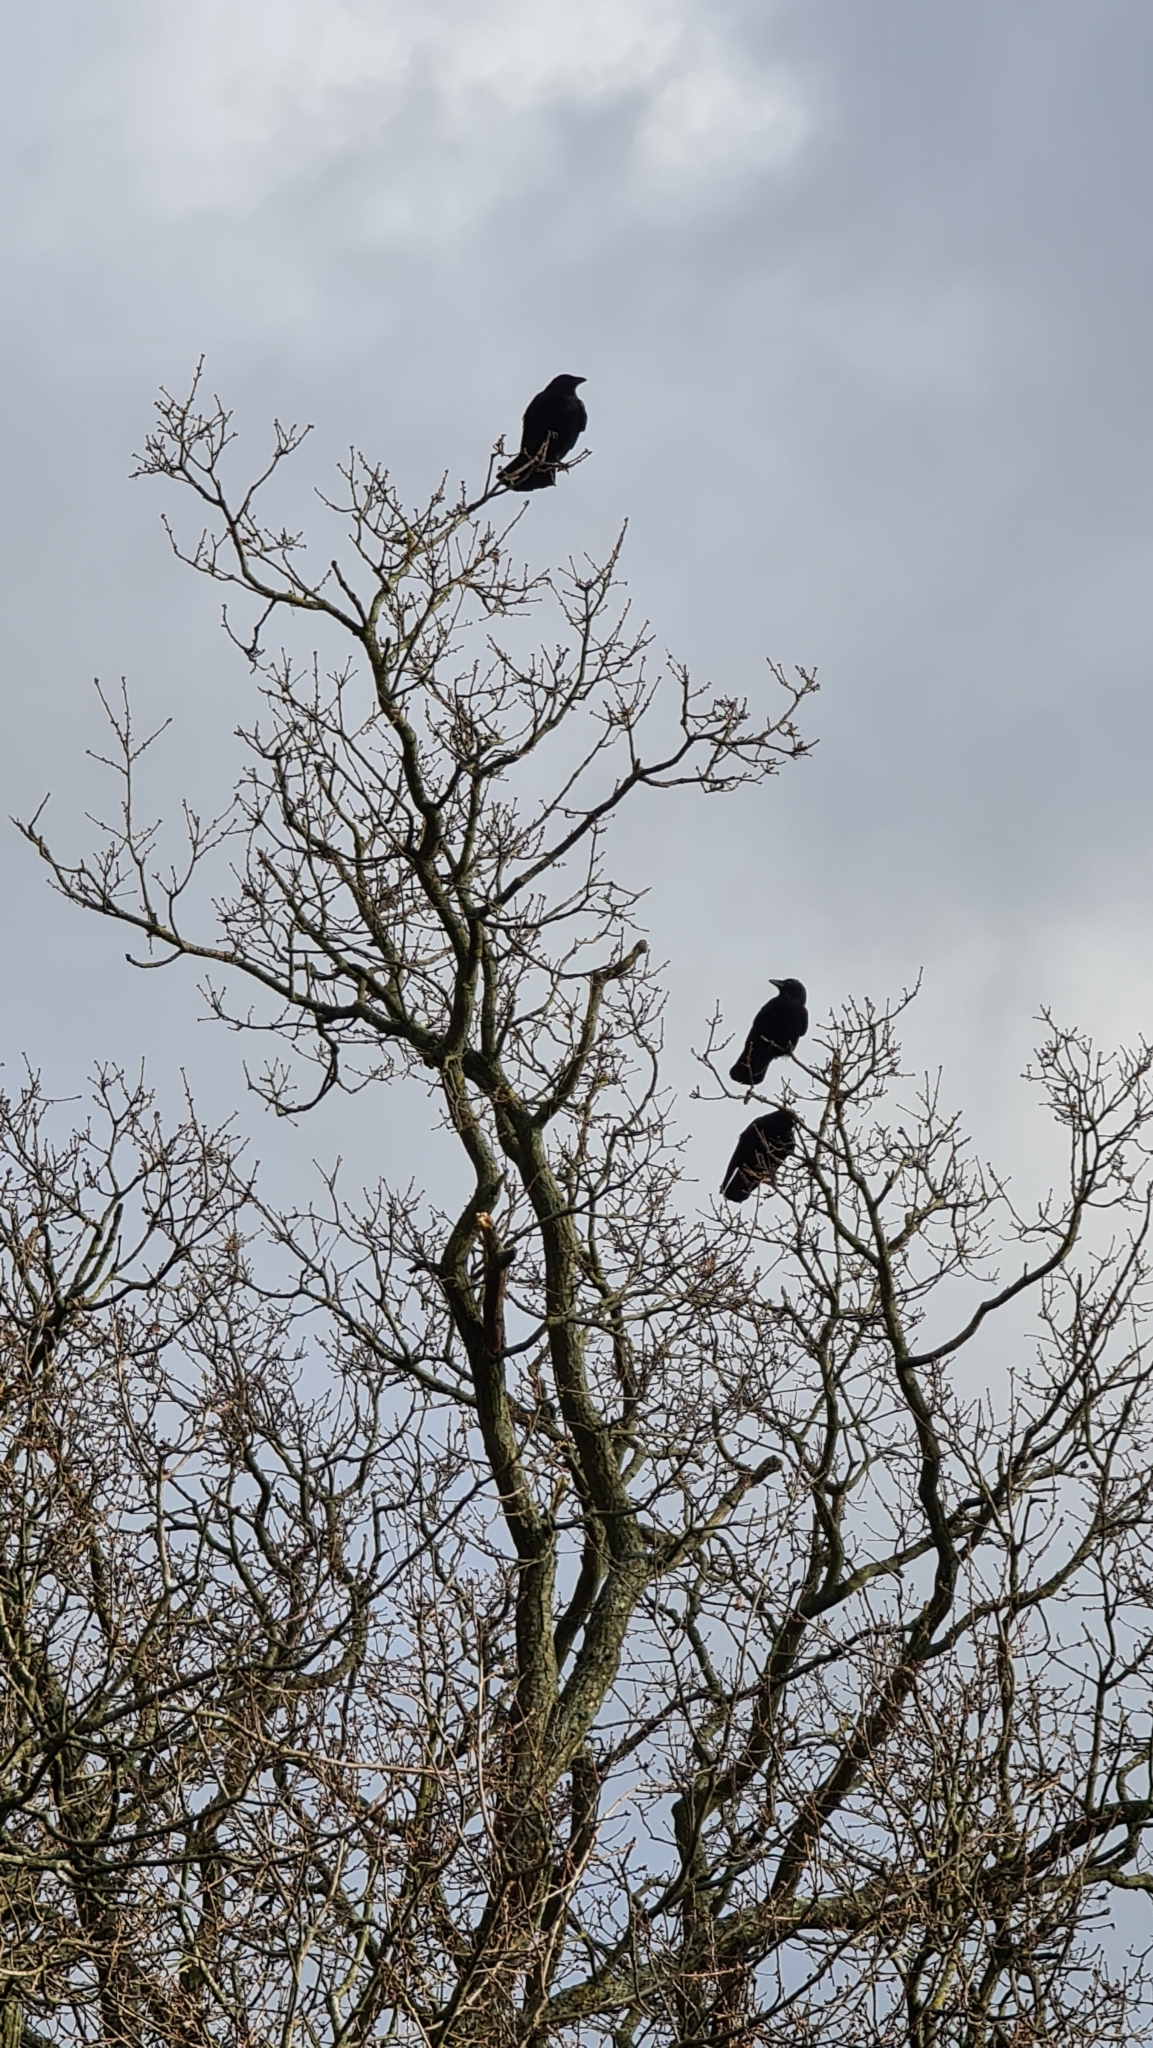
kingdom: Animalia
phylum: Chordata
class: Aves
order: Passeriformes
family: Corvidae
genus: Corvus
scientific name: Corvus corone
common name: Carrion crow
